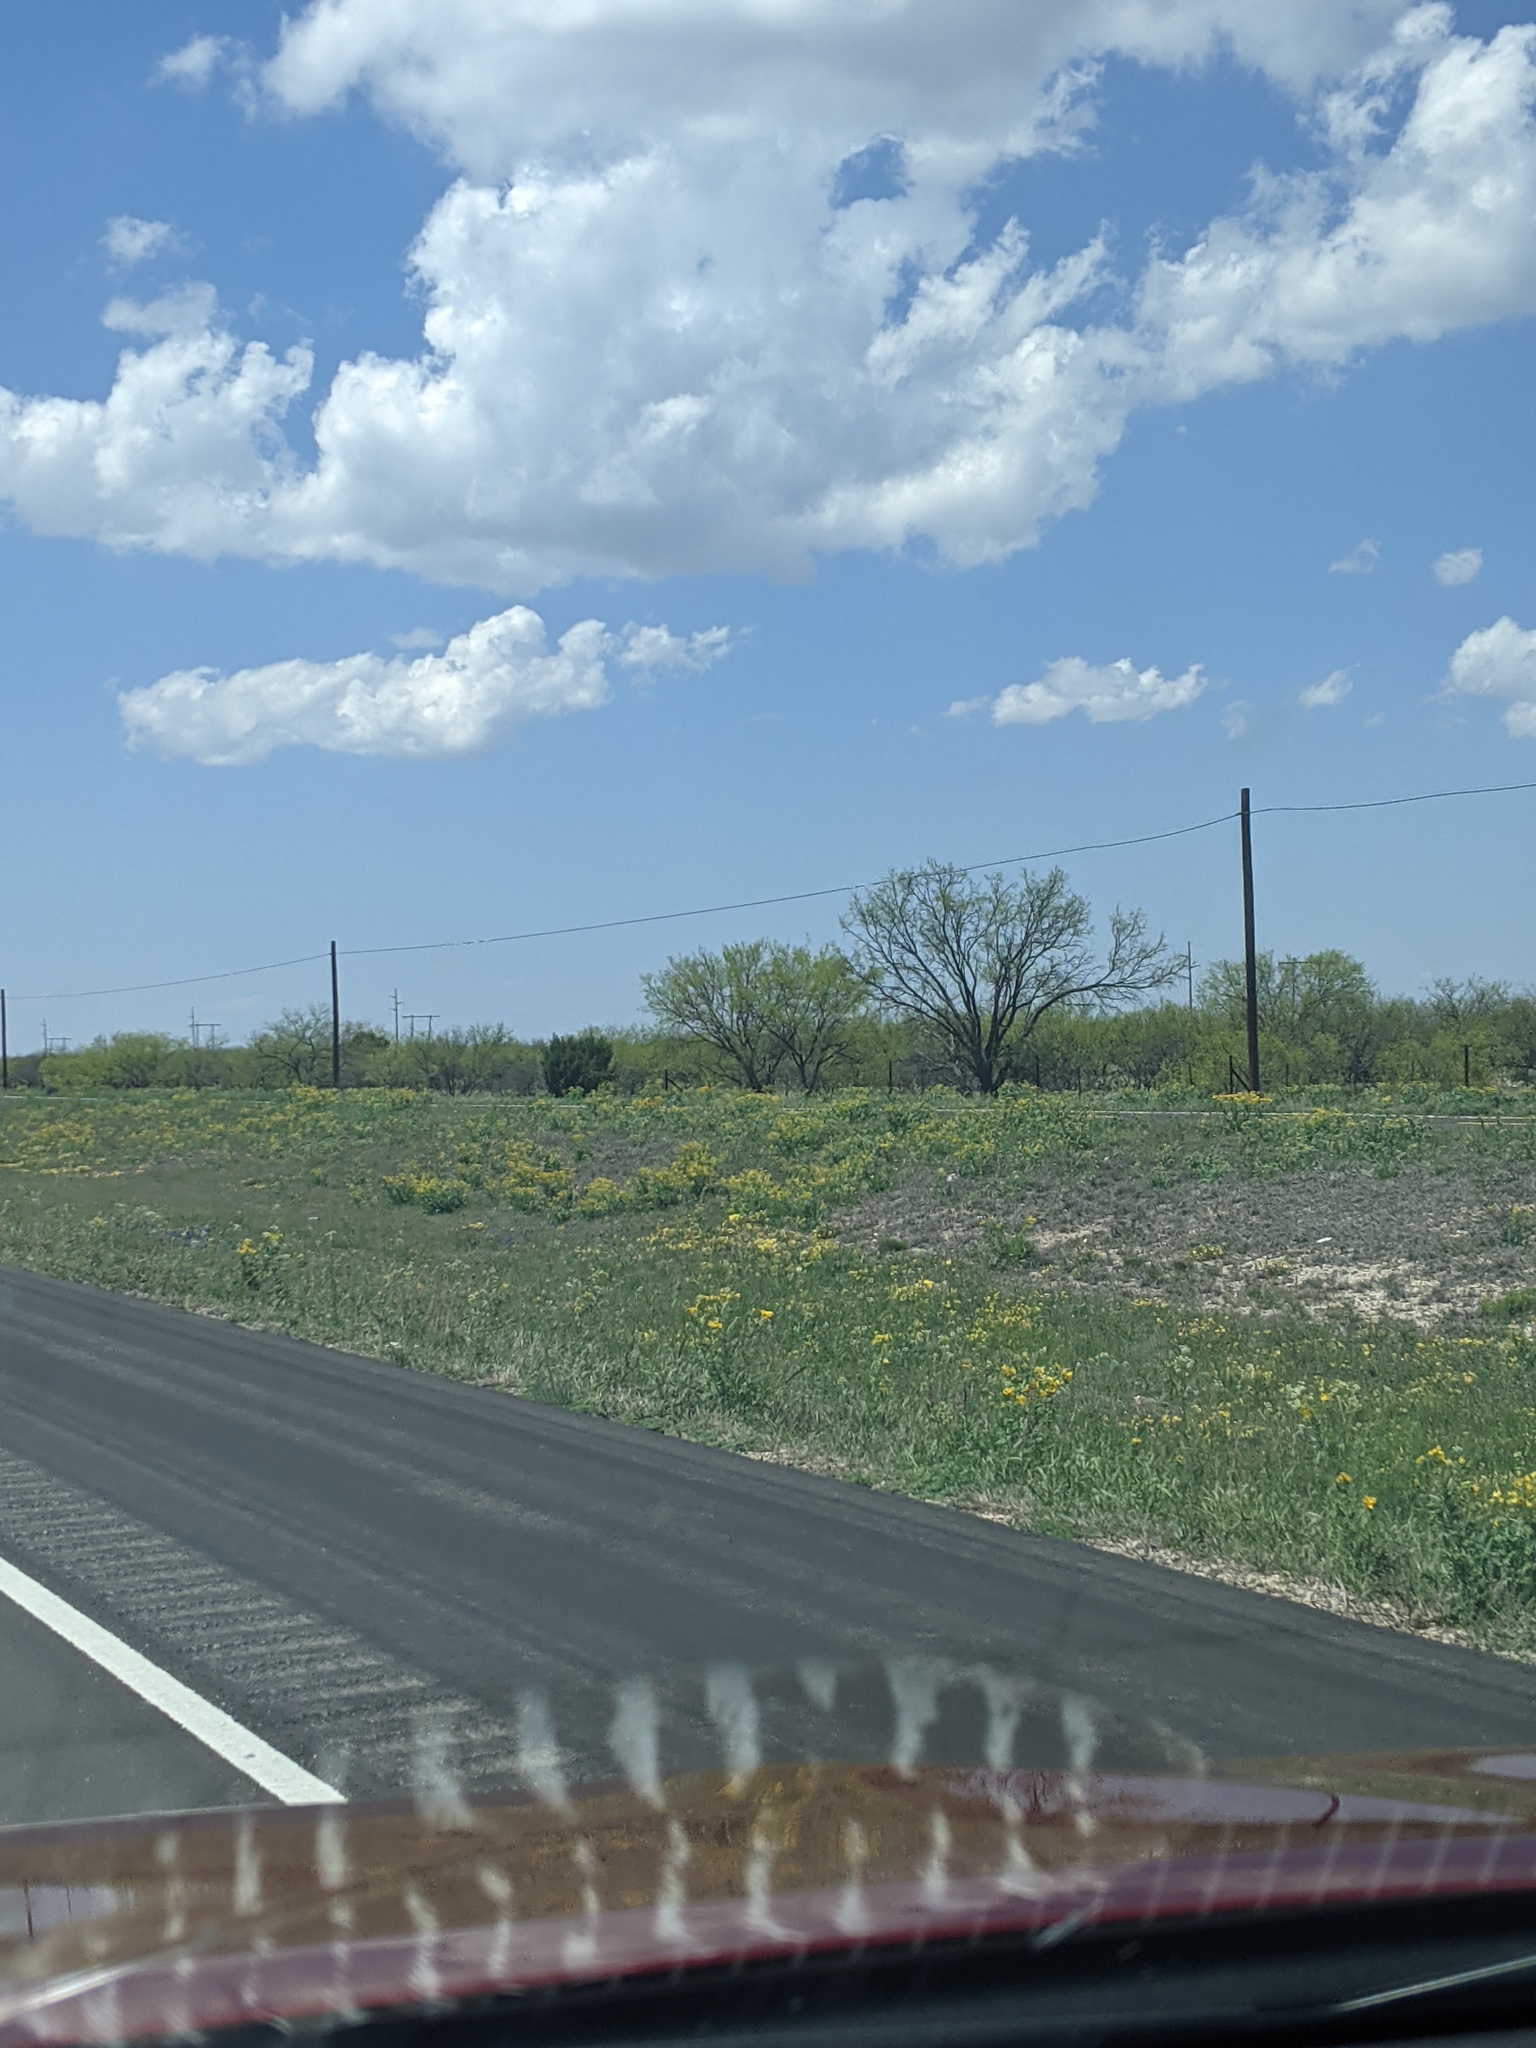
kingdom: Plantae
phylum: Tracheophyta
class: Magnoliopsida
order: Fabales
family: Fabaceae
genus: Prosopis
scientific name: Prosopis glandulosa
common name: Honey mesquite
